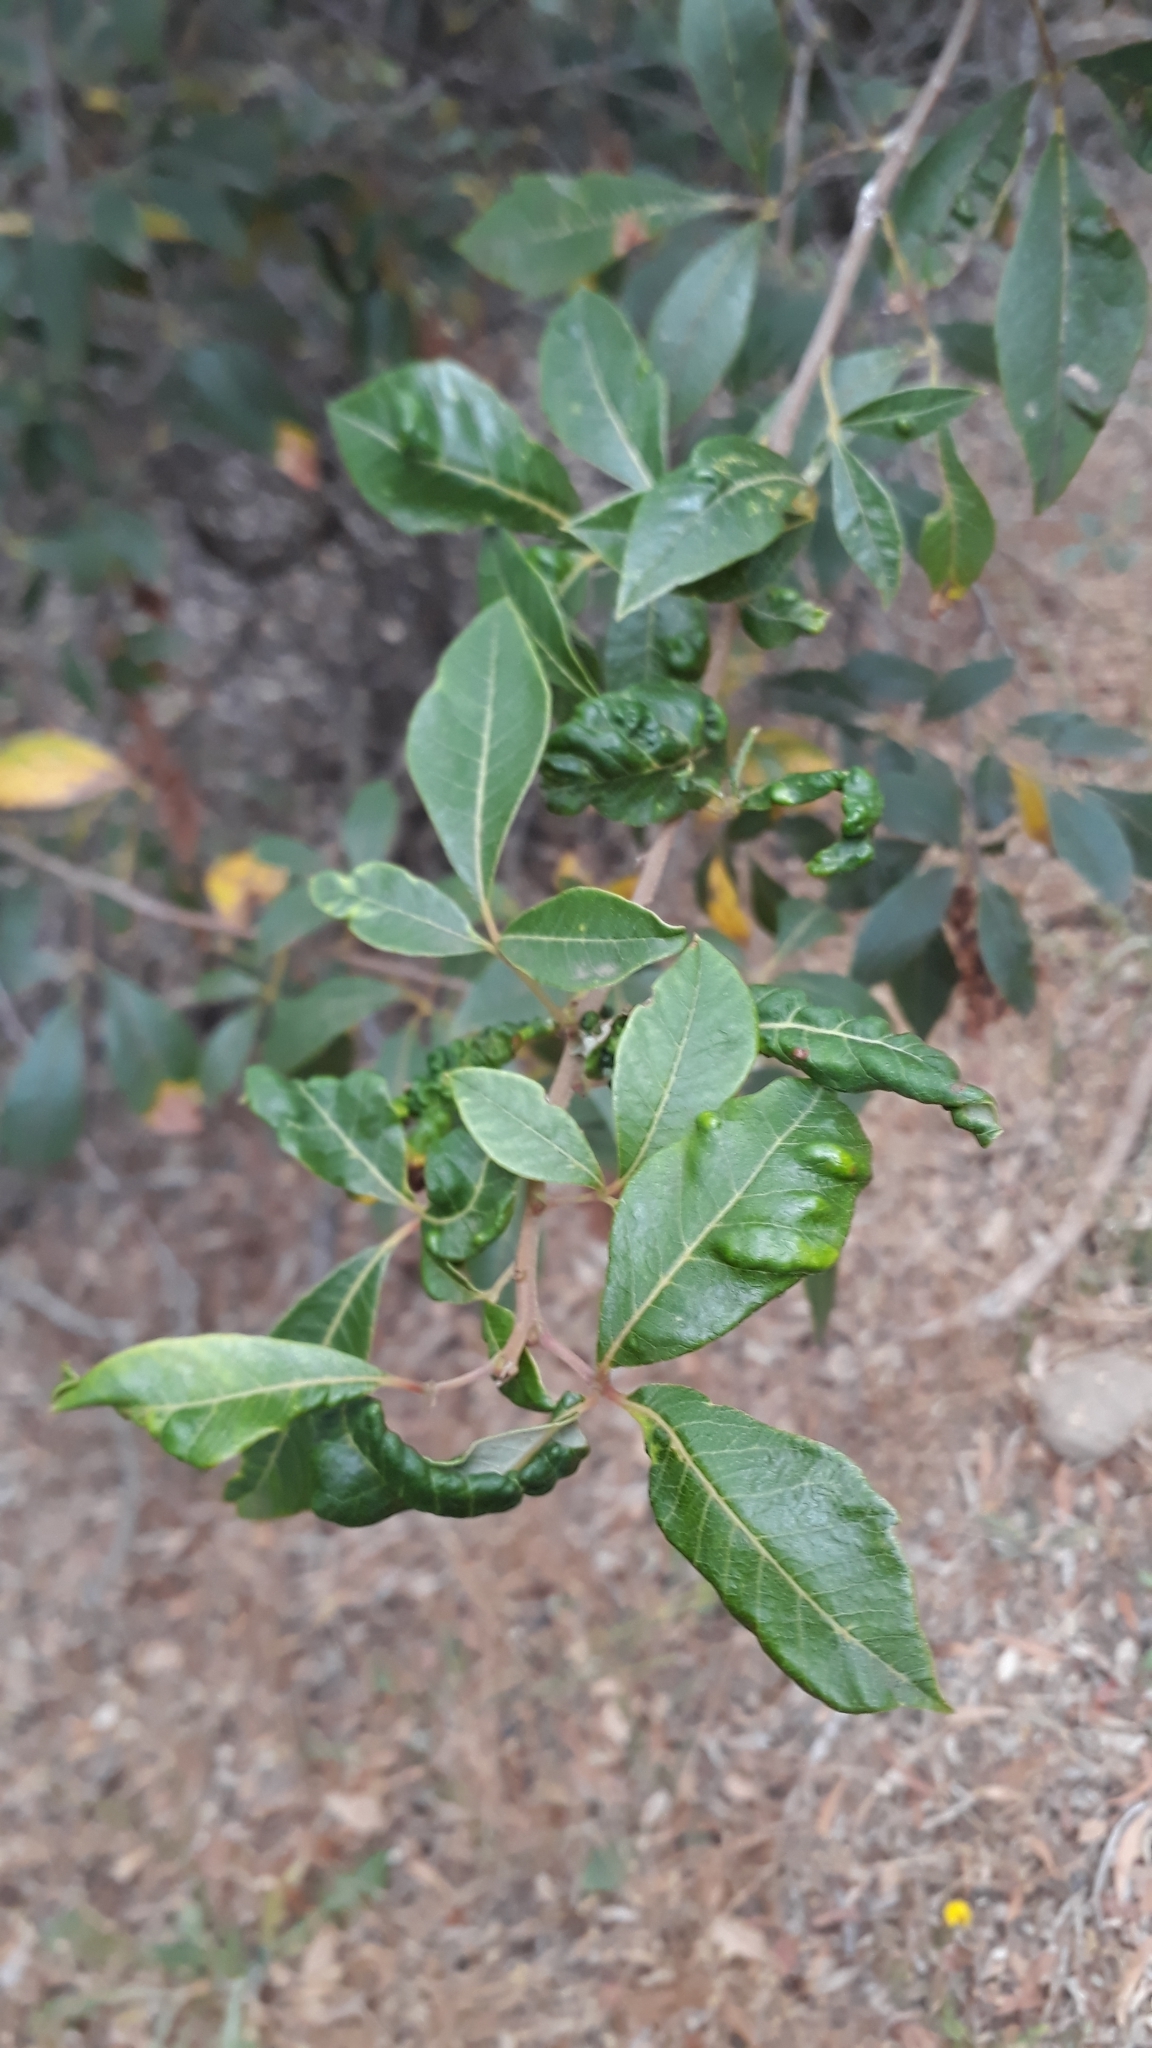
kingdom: Plantae
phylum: Tracheophyta
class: Magnoliopsida
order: Sapindales
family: Anacardiaceae
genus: Searsia
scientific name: Searsia tomentosa
